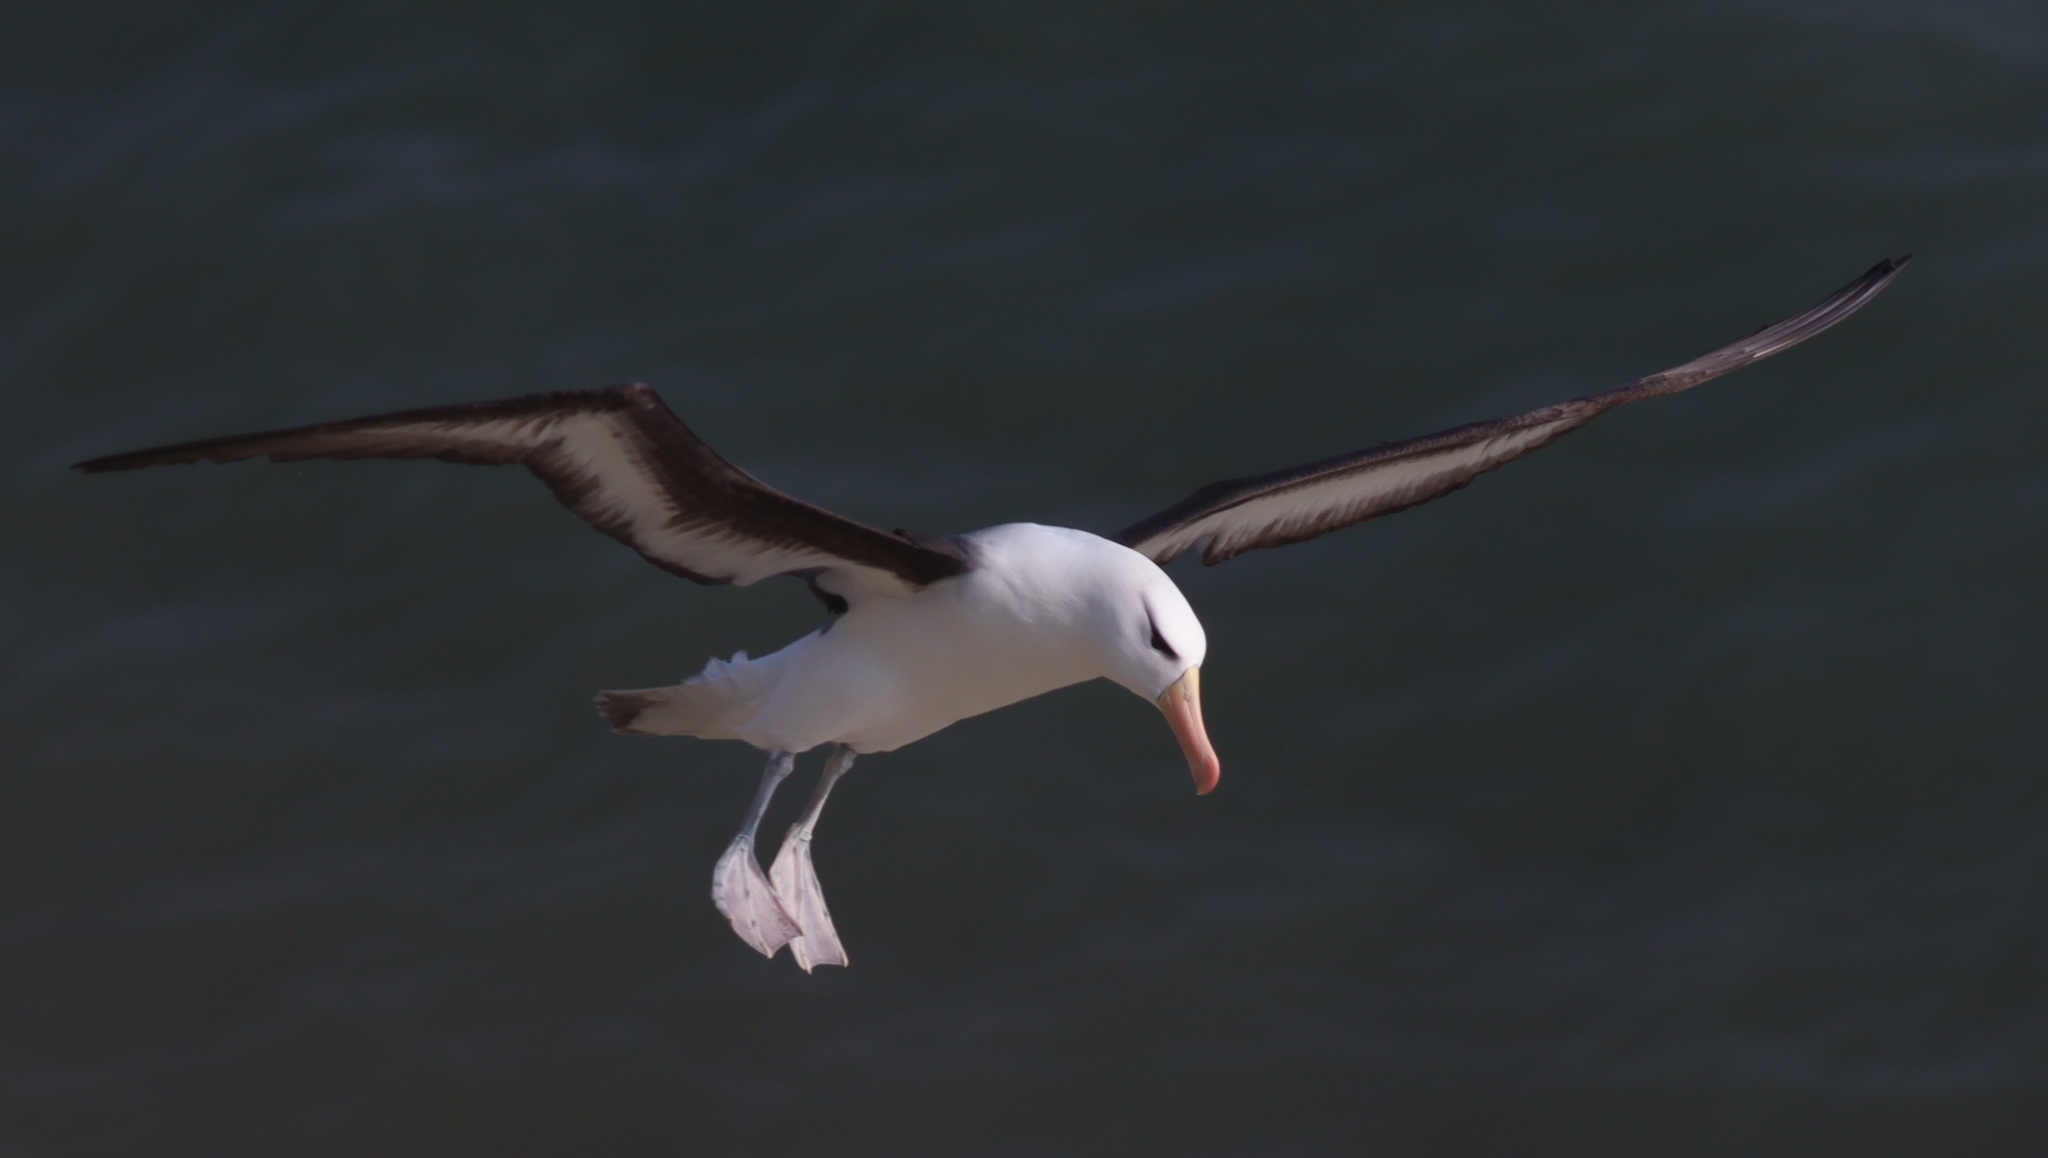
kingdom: Animalia
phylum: Chordata
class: Aves
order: Procellariiformes
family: Diomedeidae
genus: Thalassarche
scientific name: Thalassarche melanophris
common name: Black-browed albatross
